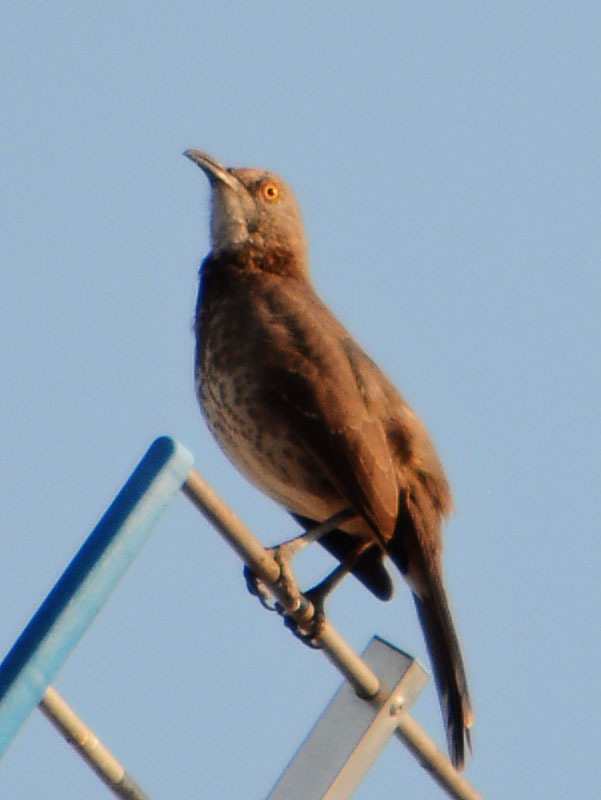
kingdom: Animalia
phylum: Chordata
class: Aves
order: Passeriformes
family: Mimidae
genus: Toxostoma
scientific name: Toxostoma curvirostre
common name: Curve-billed thrasher
